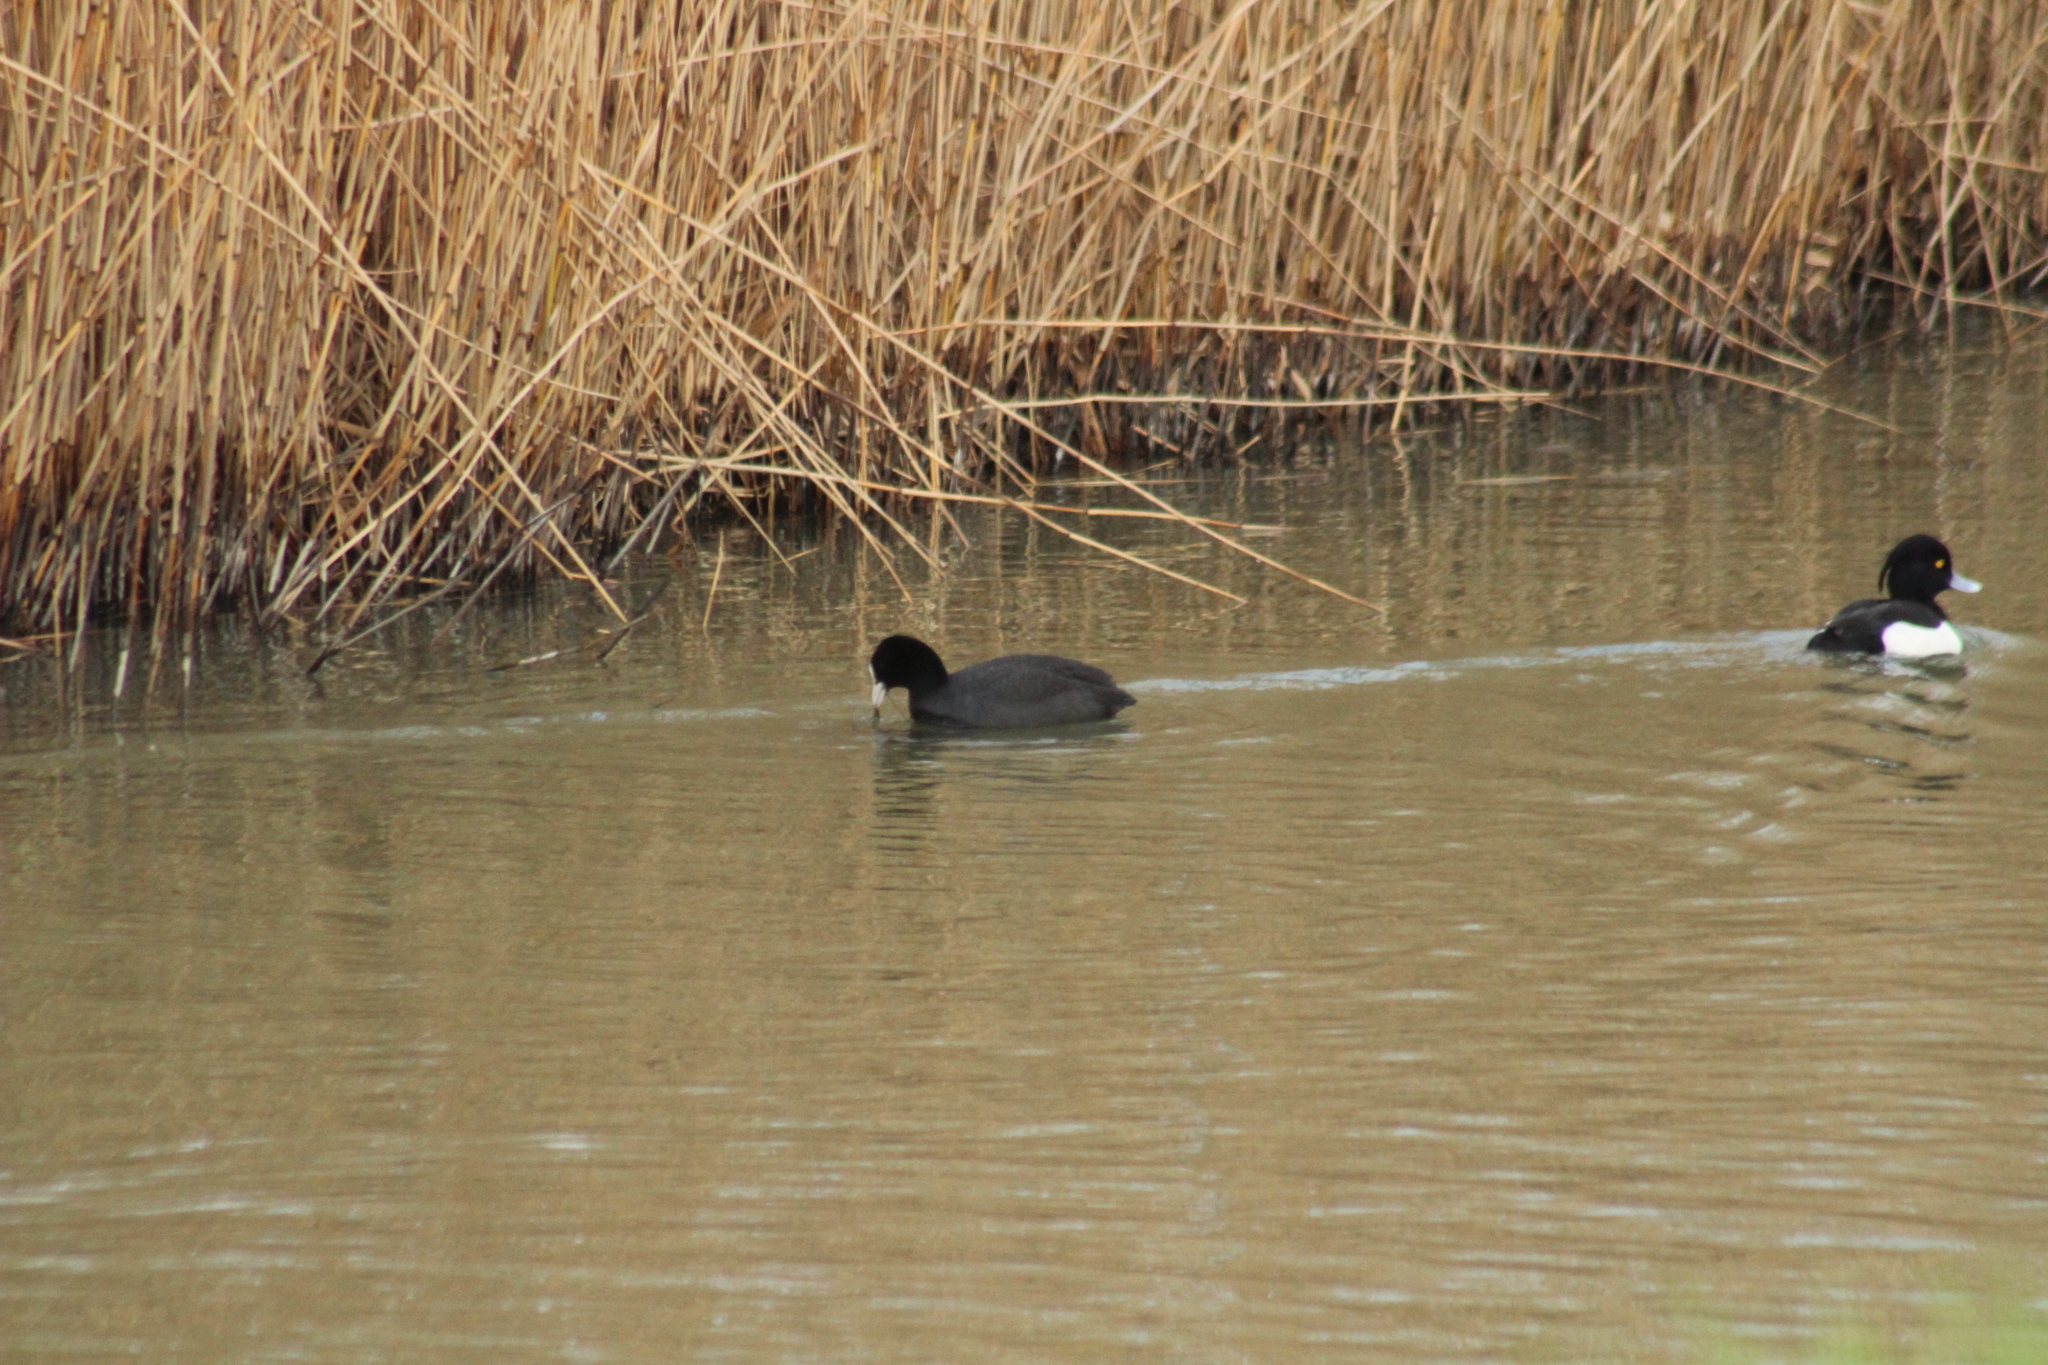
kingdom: Animalia
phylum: Chordata
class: Aves
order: Gruiformes
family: Rallidae
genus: Fulica
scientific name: Fulica atra
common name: Eurasian coot
